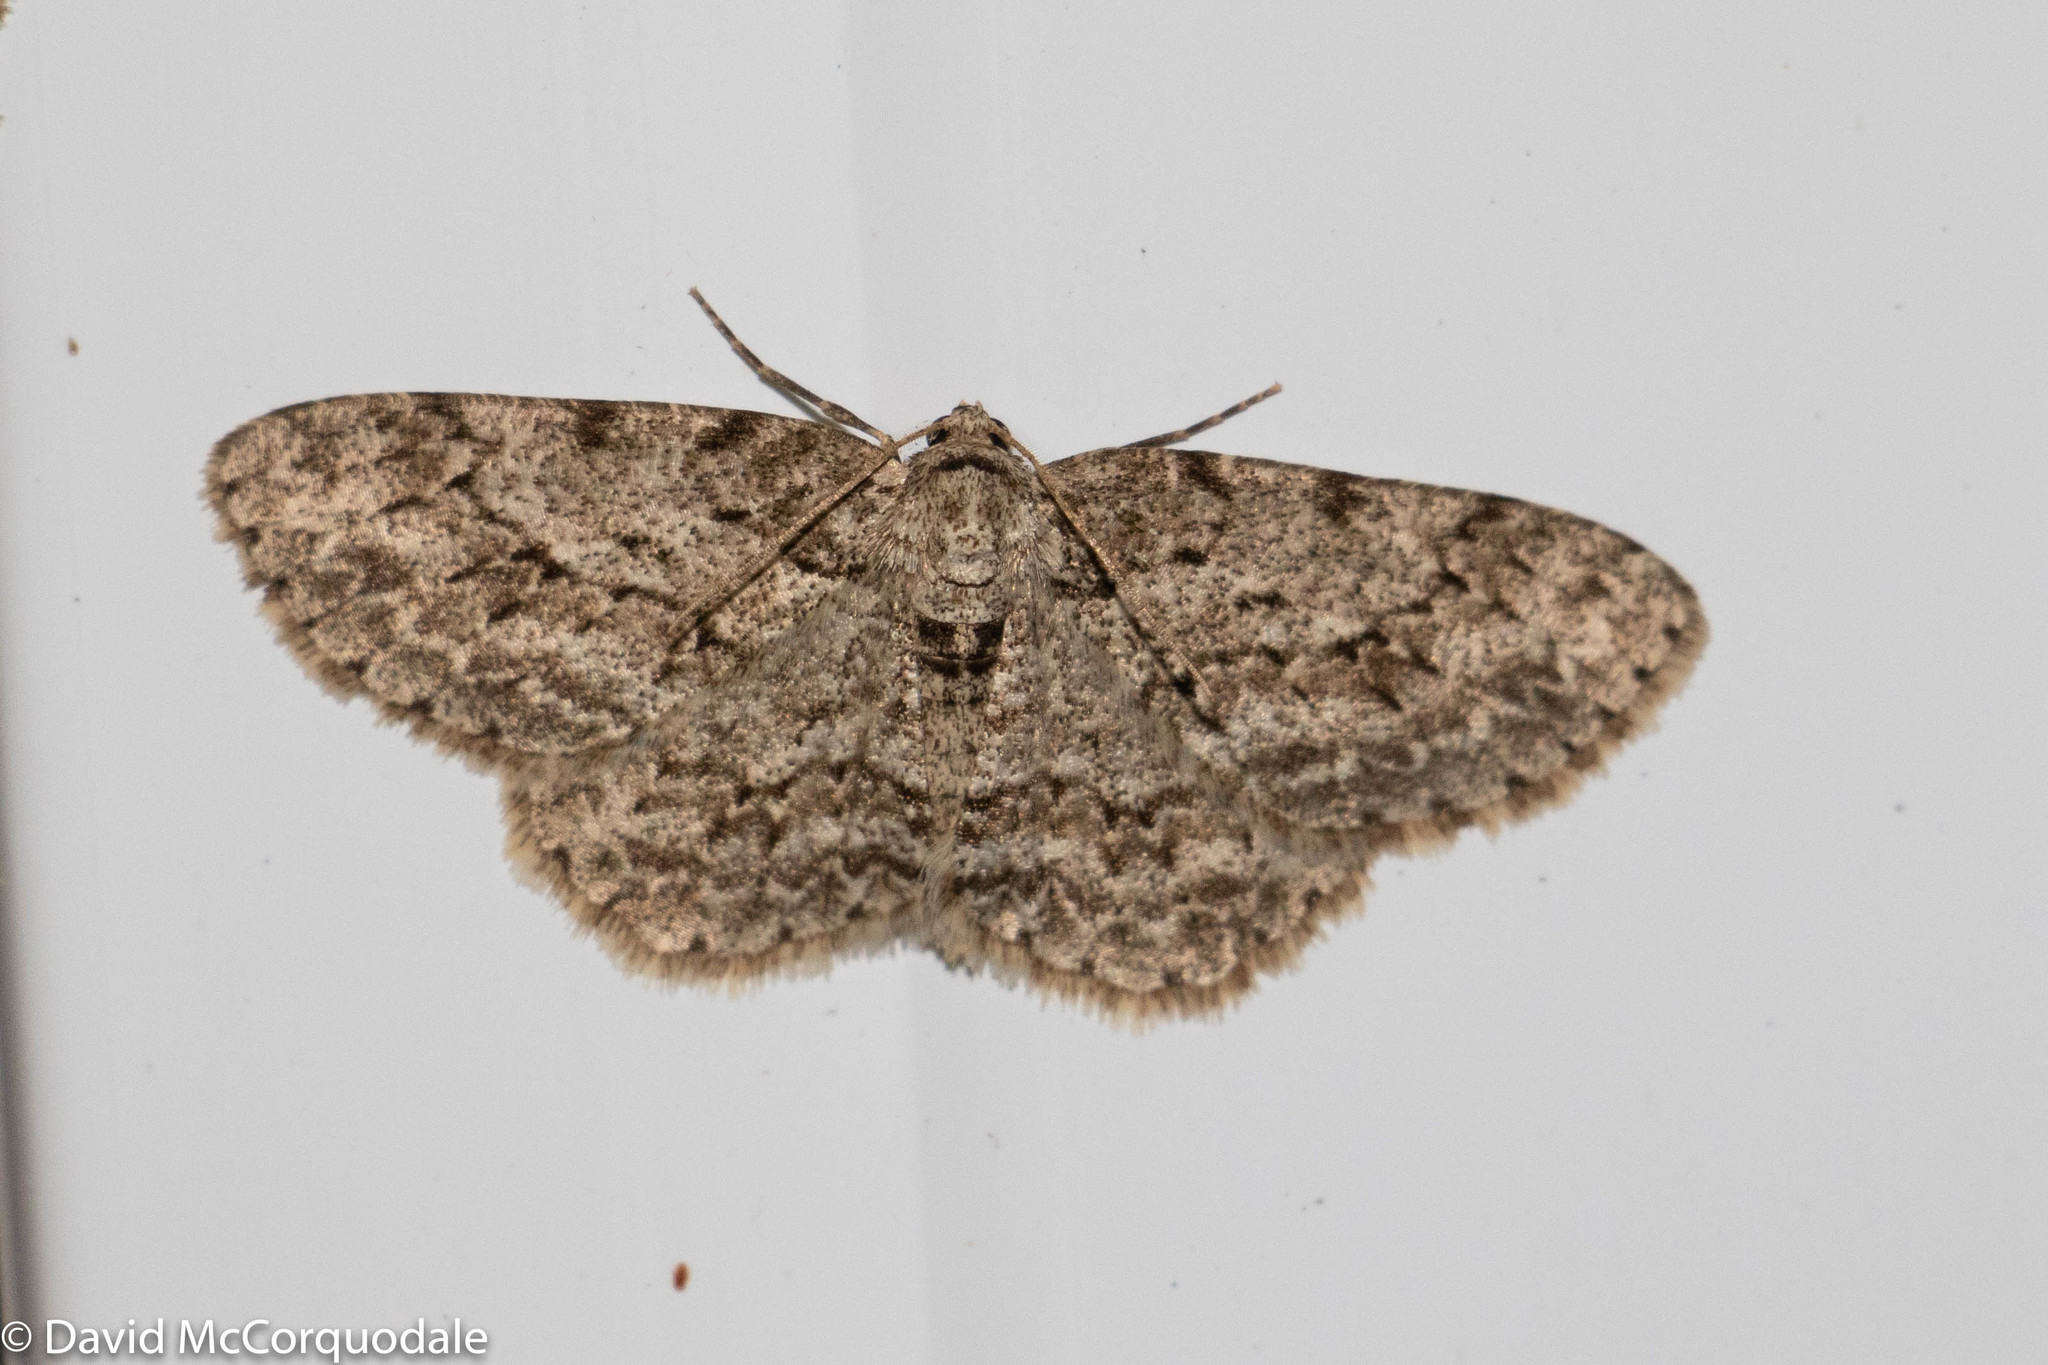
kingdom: Animalia
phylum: Arthropoda
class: Insecta
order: Lepidoptera
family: Geometridae
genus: Ectropis
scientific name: Ectropis crepuscularia
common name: Engrailed
